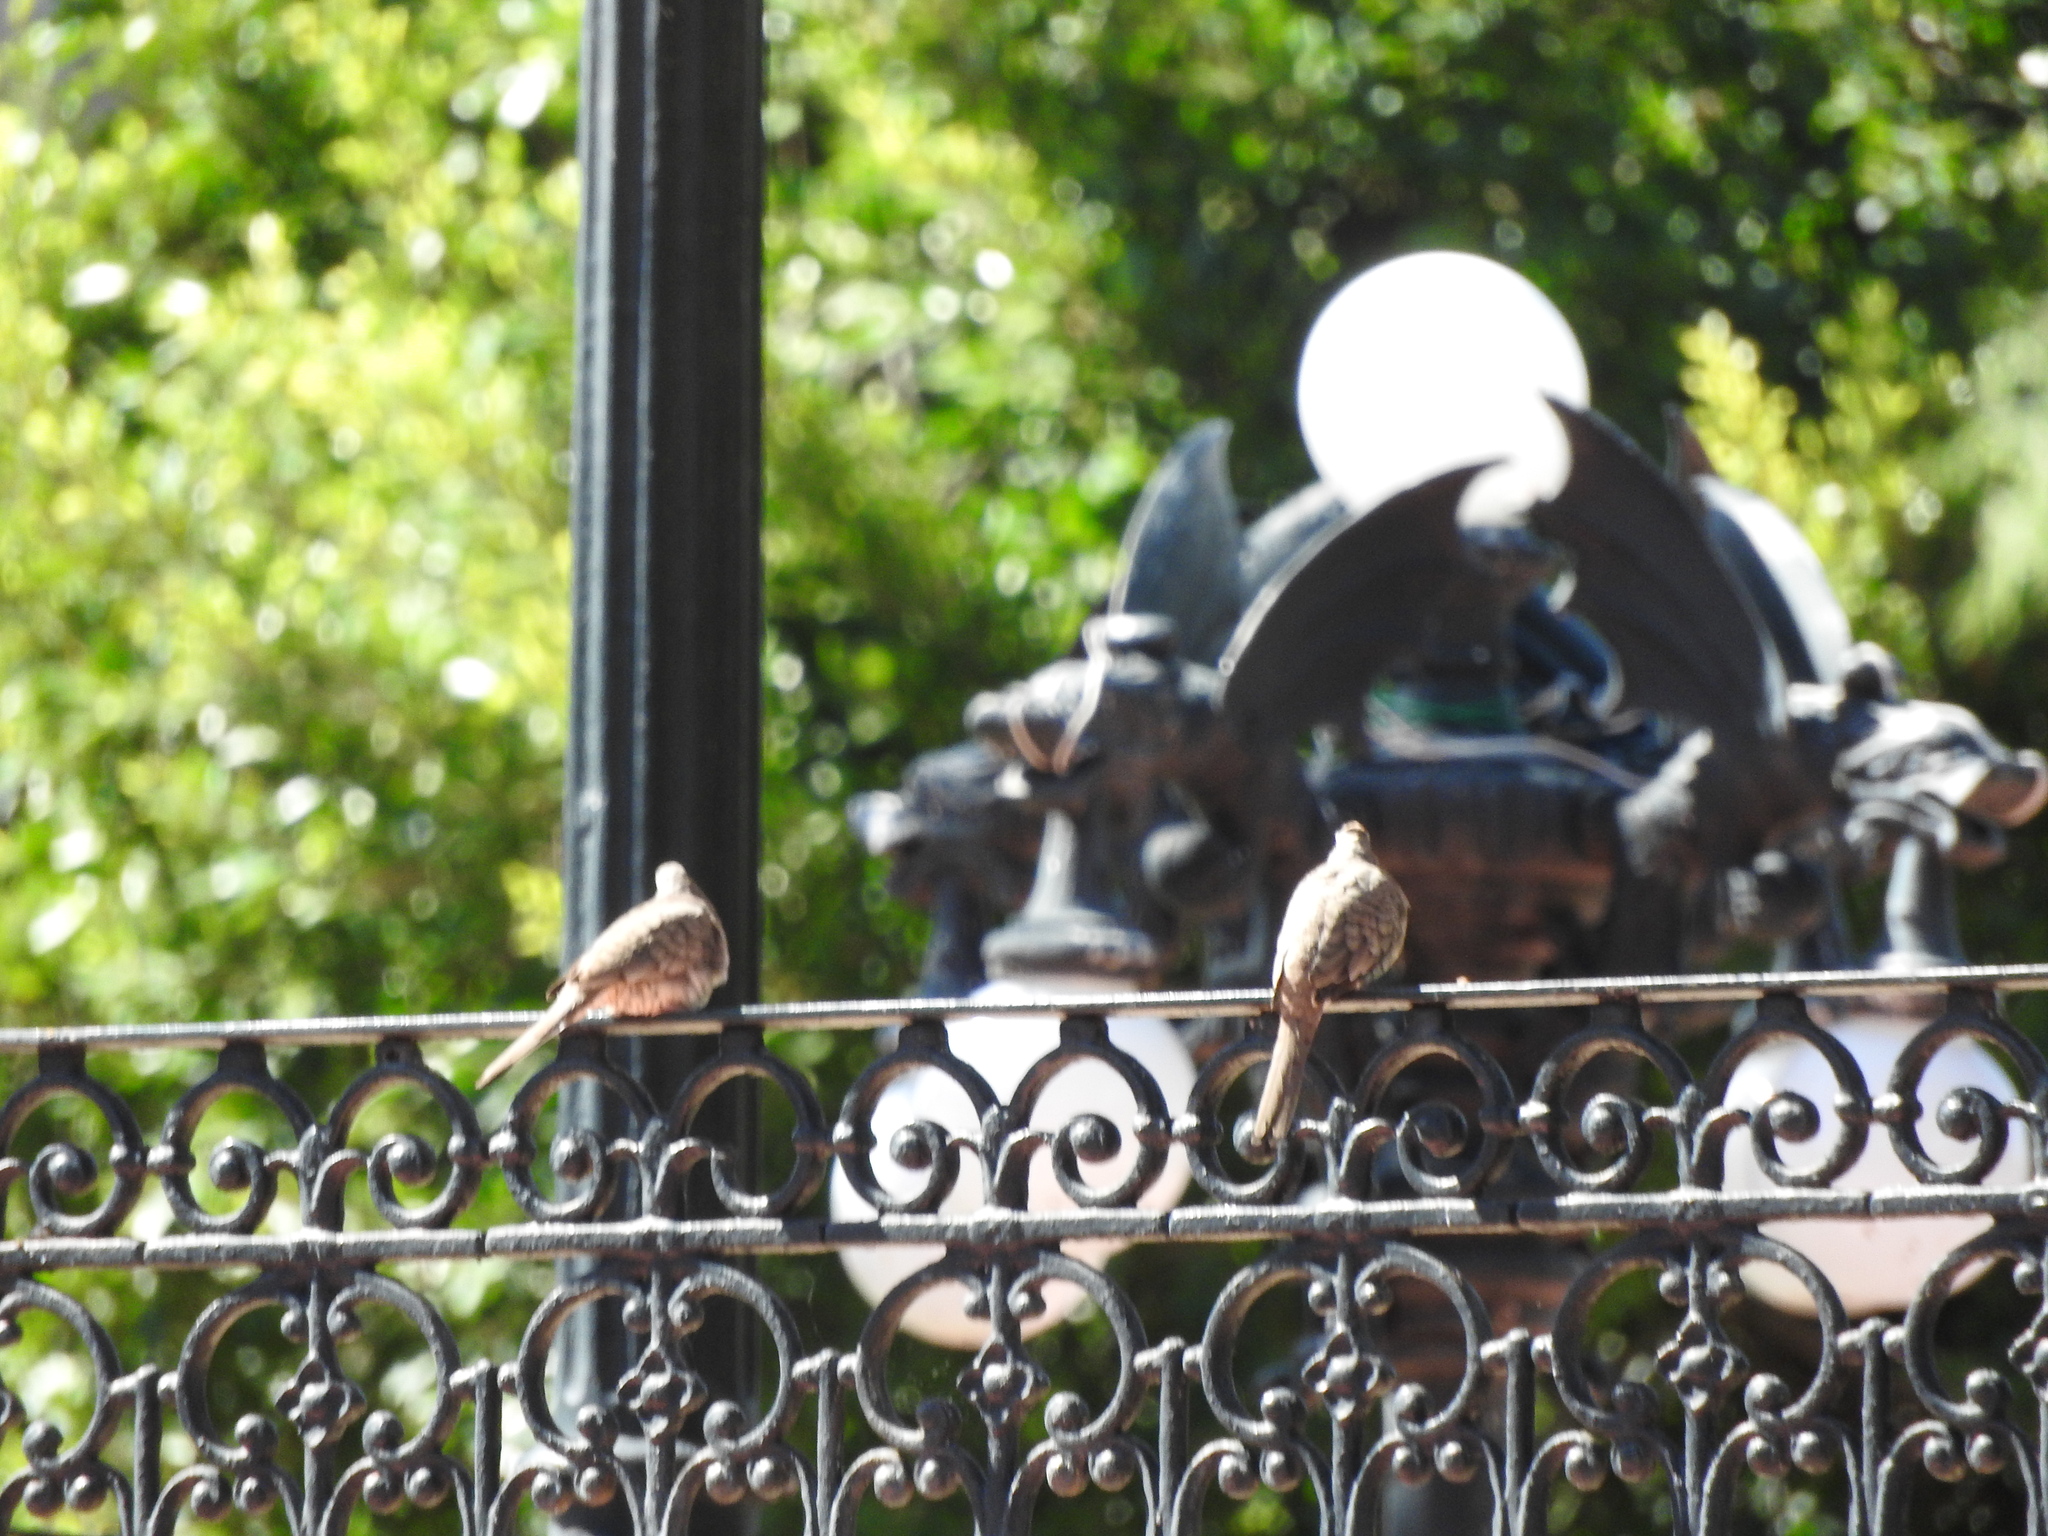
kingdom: Animalia
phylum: Chordata
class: Aves
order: Columbiformes
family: Columbidae
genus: Columbina
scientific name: Columbina inca
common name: Inca dove
